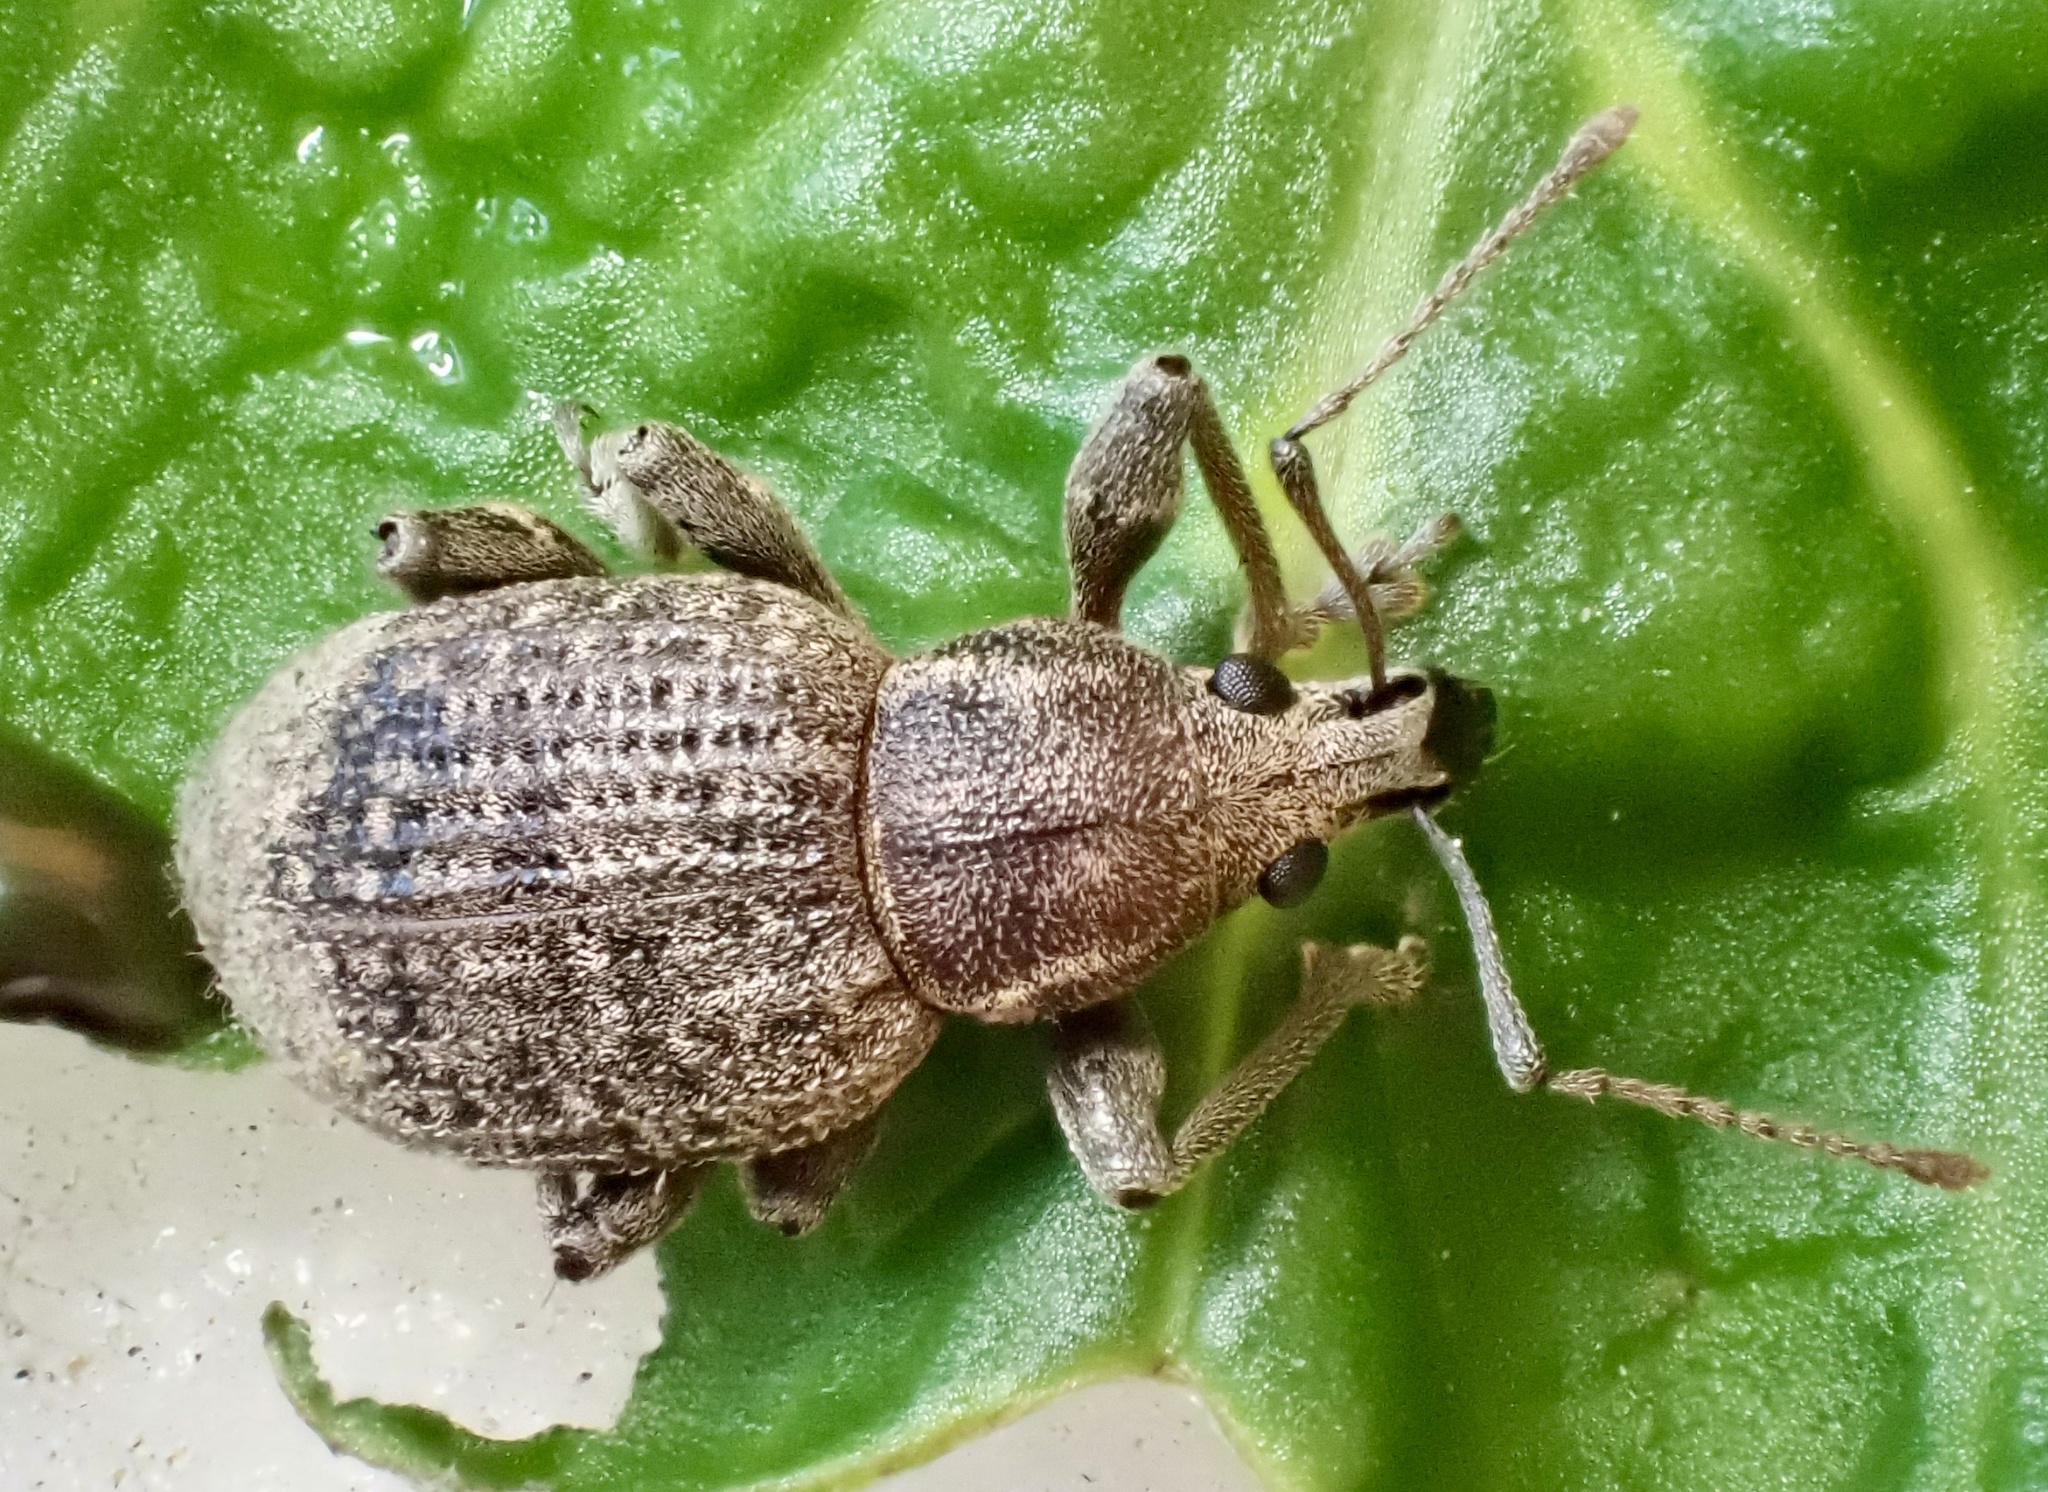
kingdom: Animalia
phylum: Arthropoda
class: Insecta
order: Coleoptera
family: Curculionidae
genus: Phlyctinus
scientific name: Phlyctinus callosus
